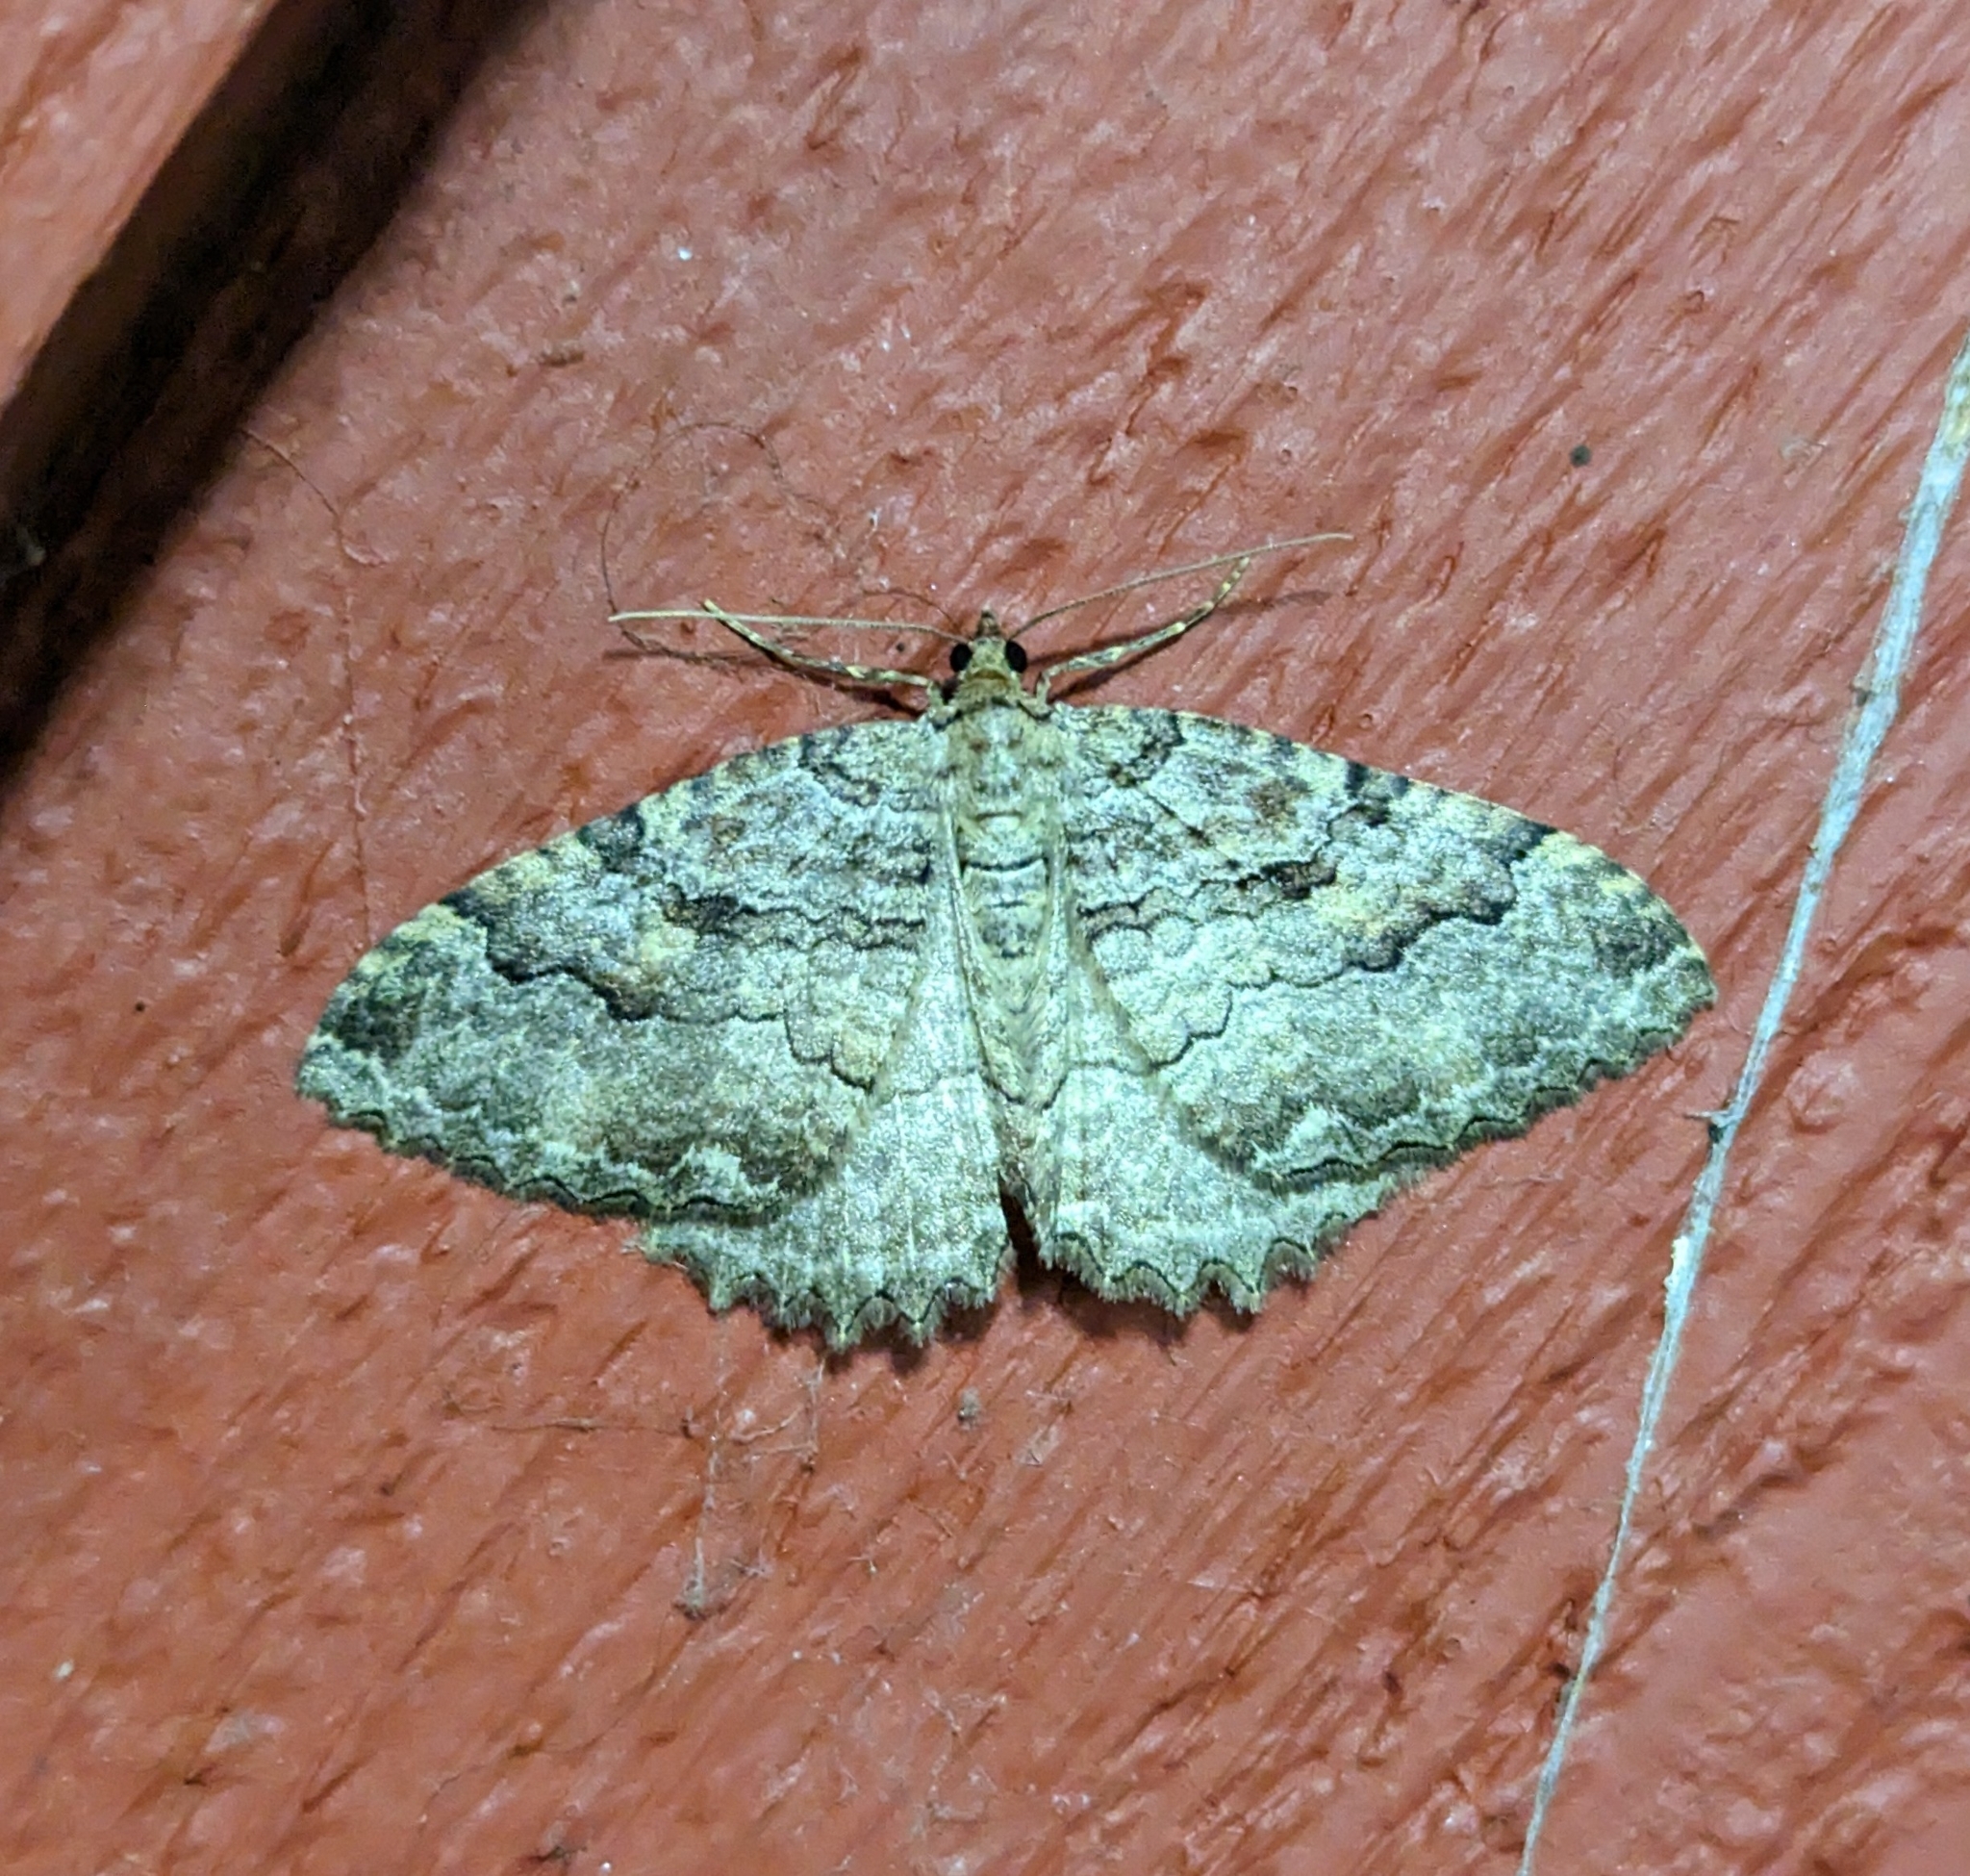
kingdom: Animalia
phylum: Arthropoda
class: Insecta
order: Lepidoptera
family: Geometridae
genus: Triphosa
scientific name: Triphosa haesitata
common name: Tissue moth
